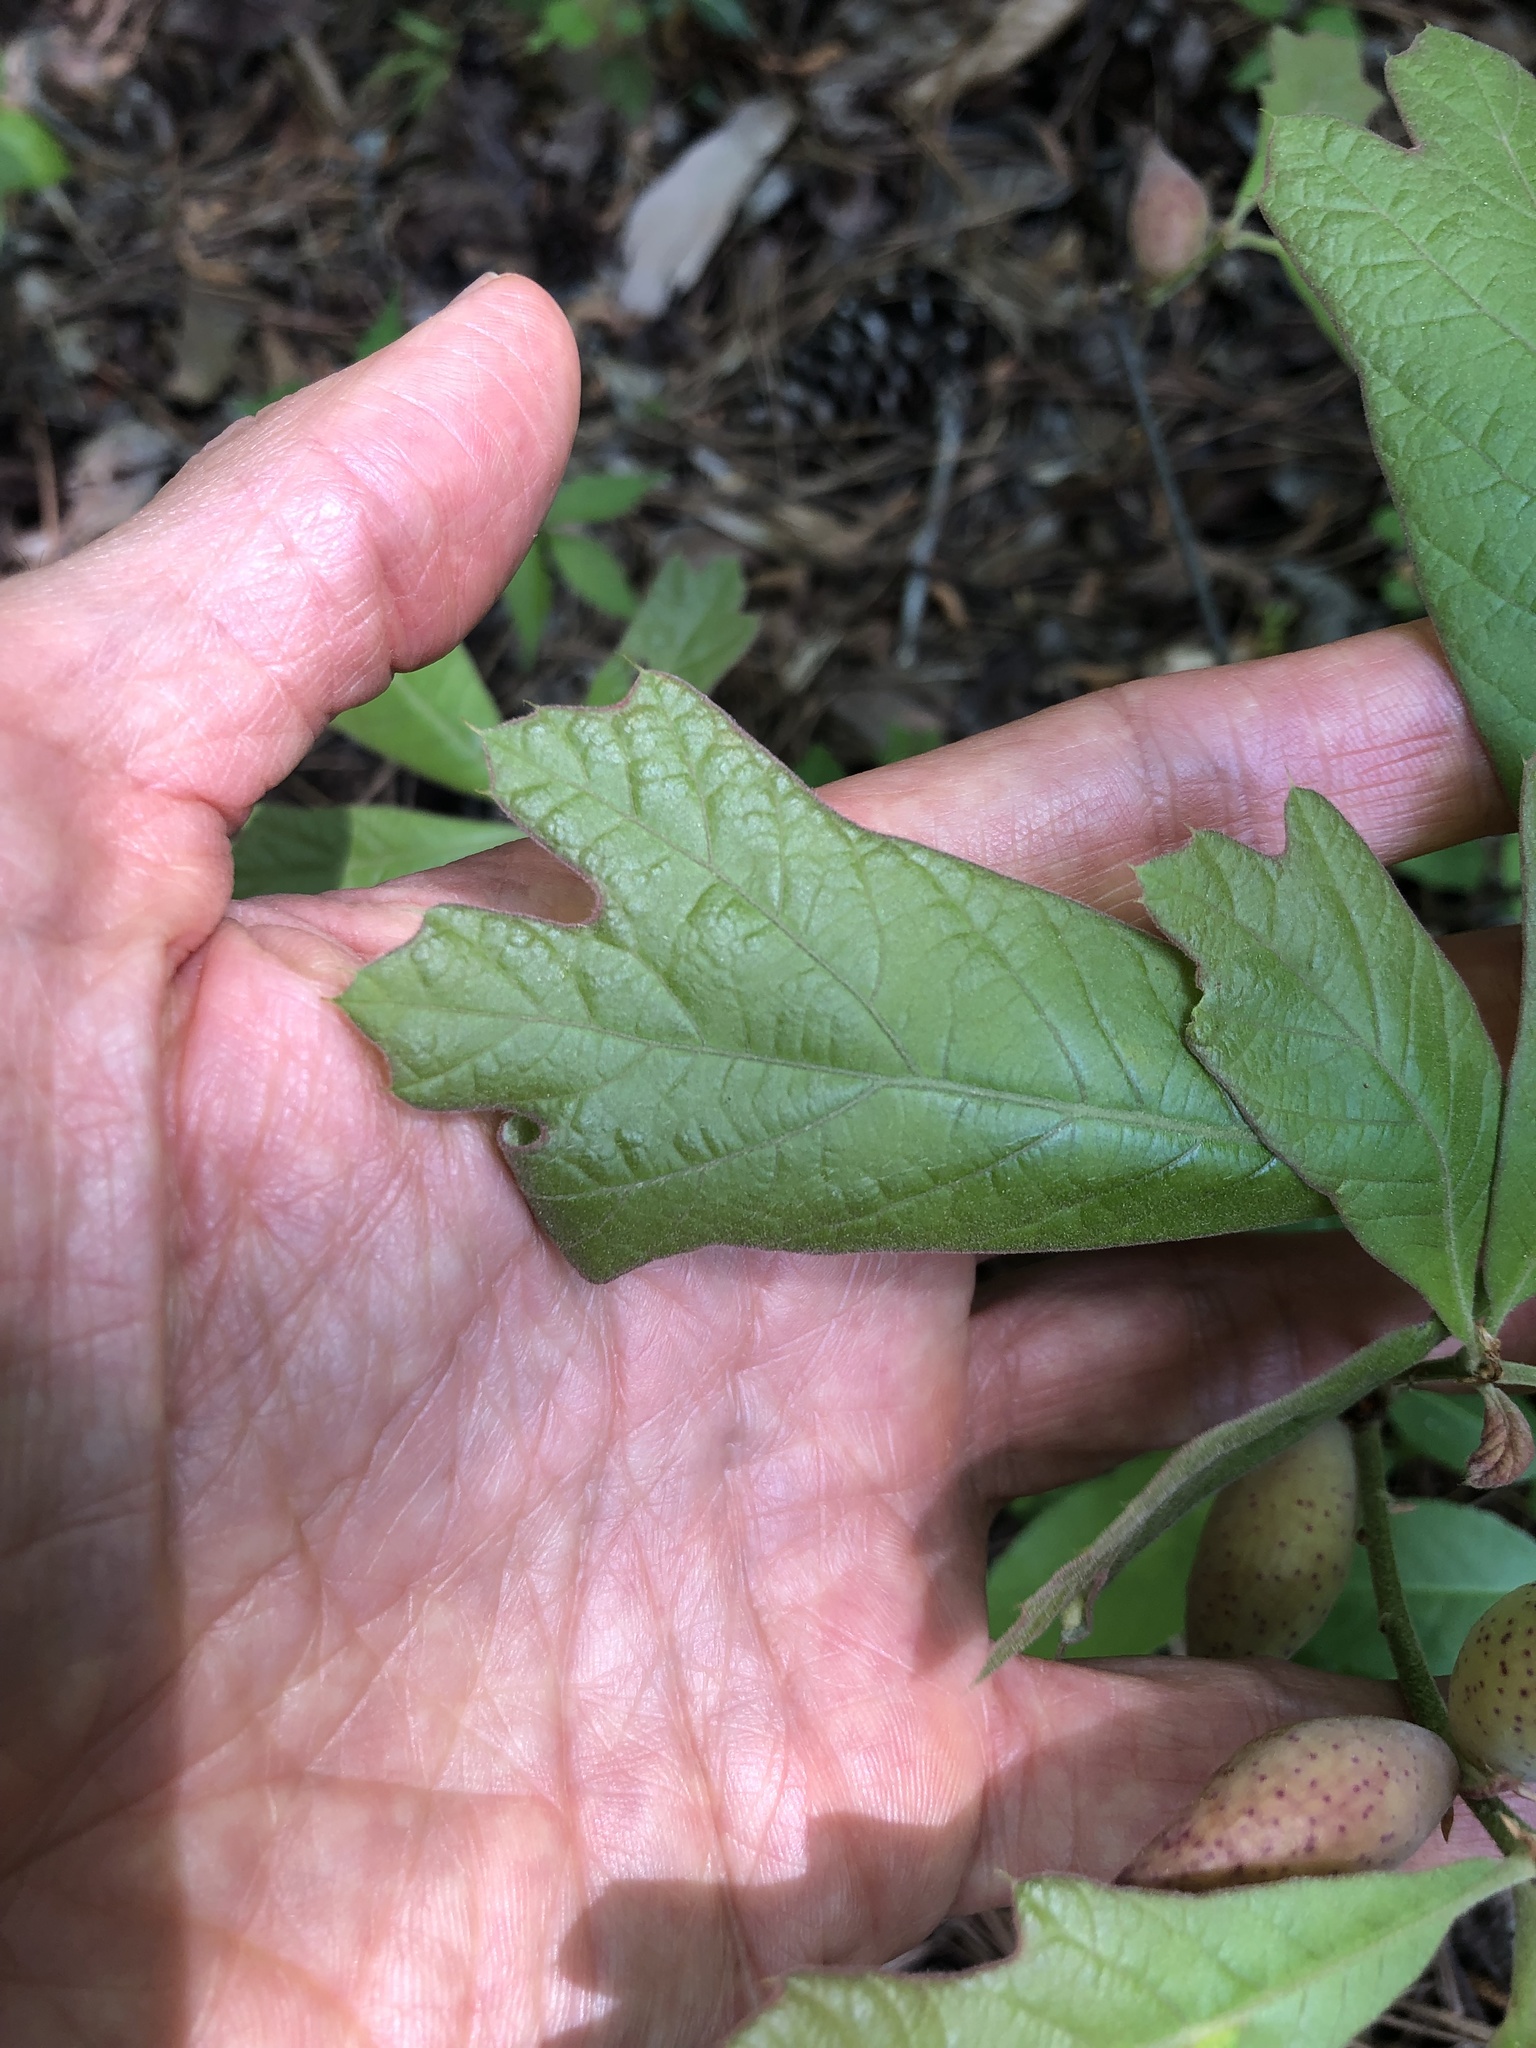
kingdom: Animalia
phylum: Arthropoda
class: Insecta
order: Hymenoptera
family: Cynipidae
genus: Amphibolips
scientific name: Amphibolips
